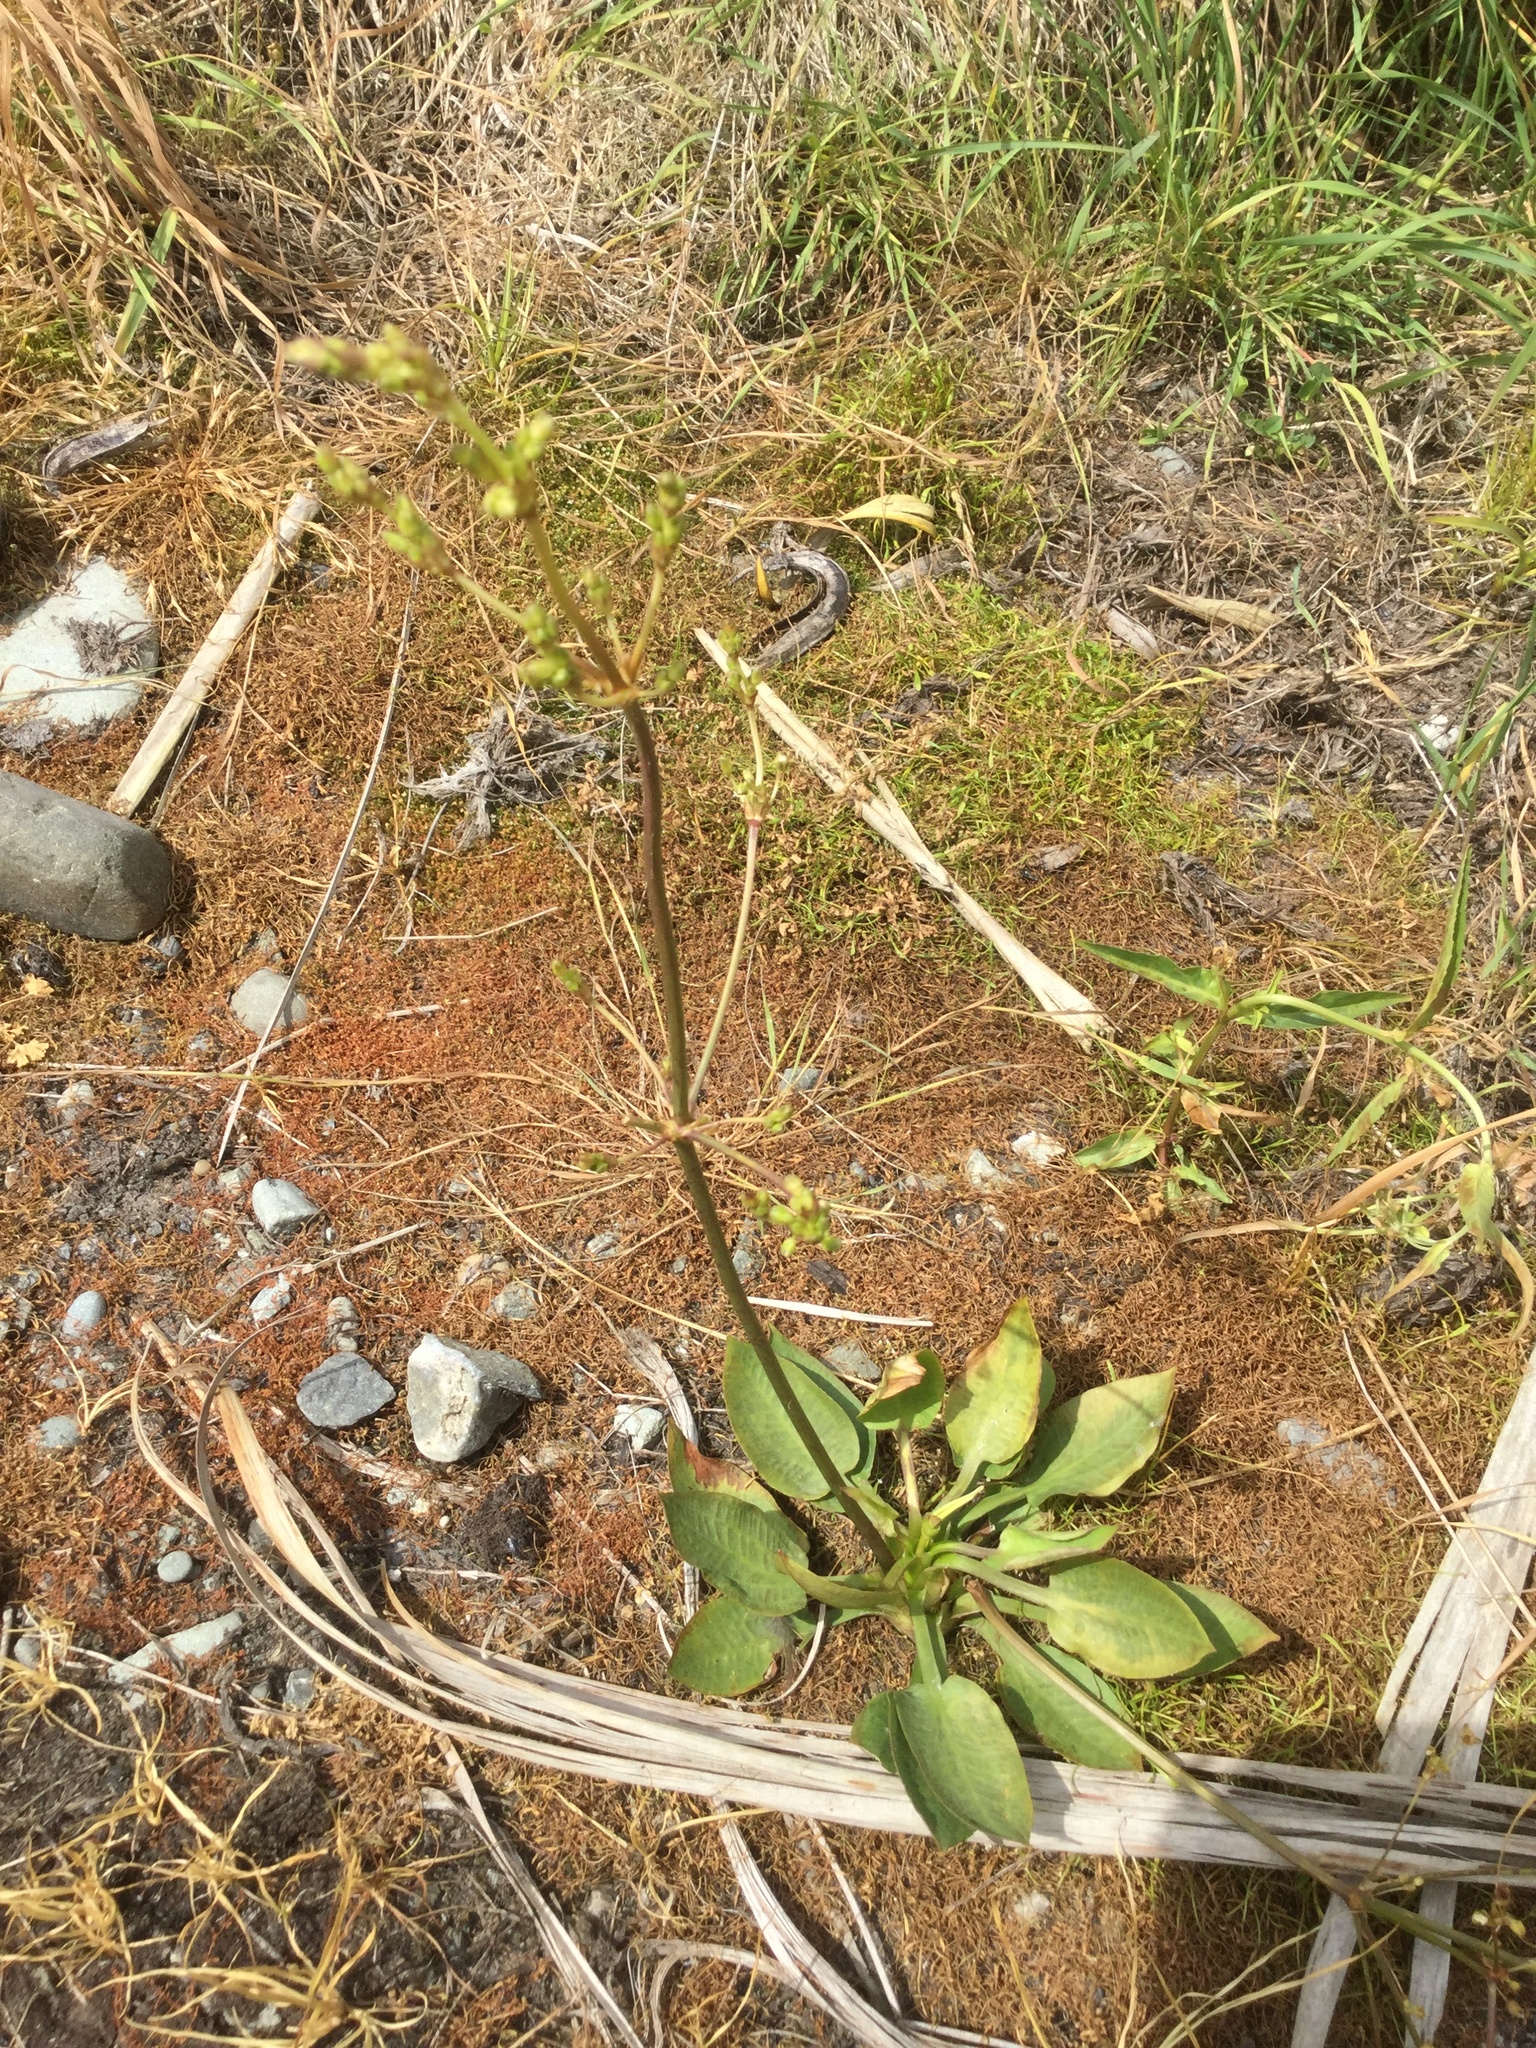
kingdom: Plantae
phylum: Tracheophyta
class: Liliopsida
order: Alismatales
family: Alismataceae
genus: Alisma
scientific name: Alisma plantago-aquatica
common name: Water-plantain
